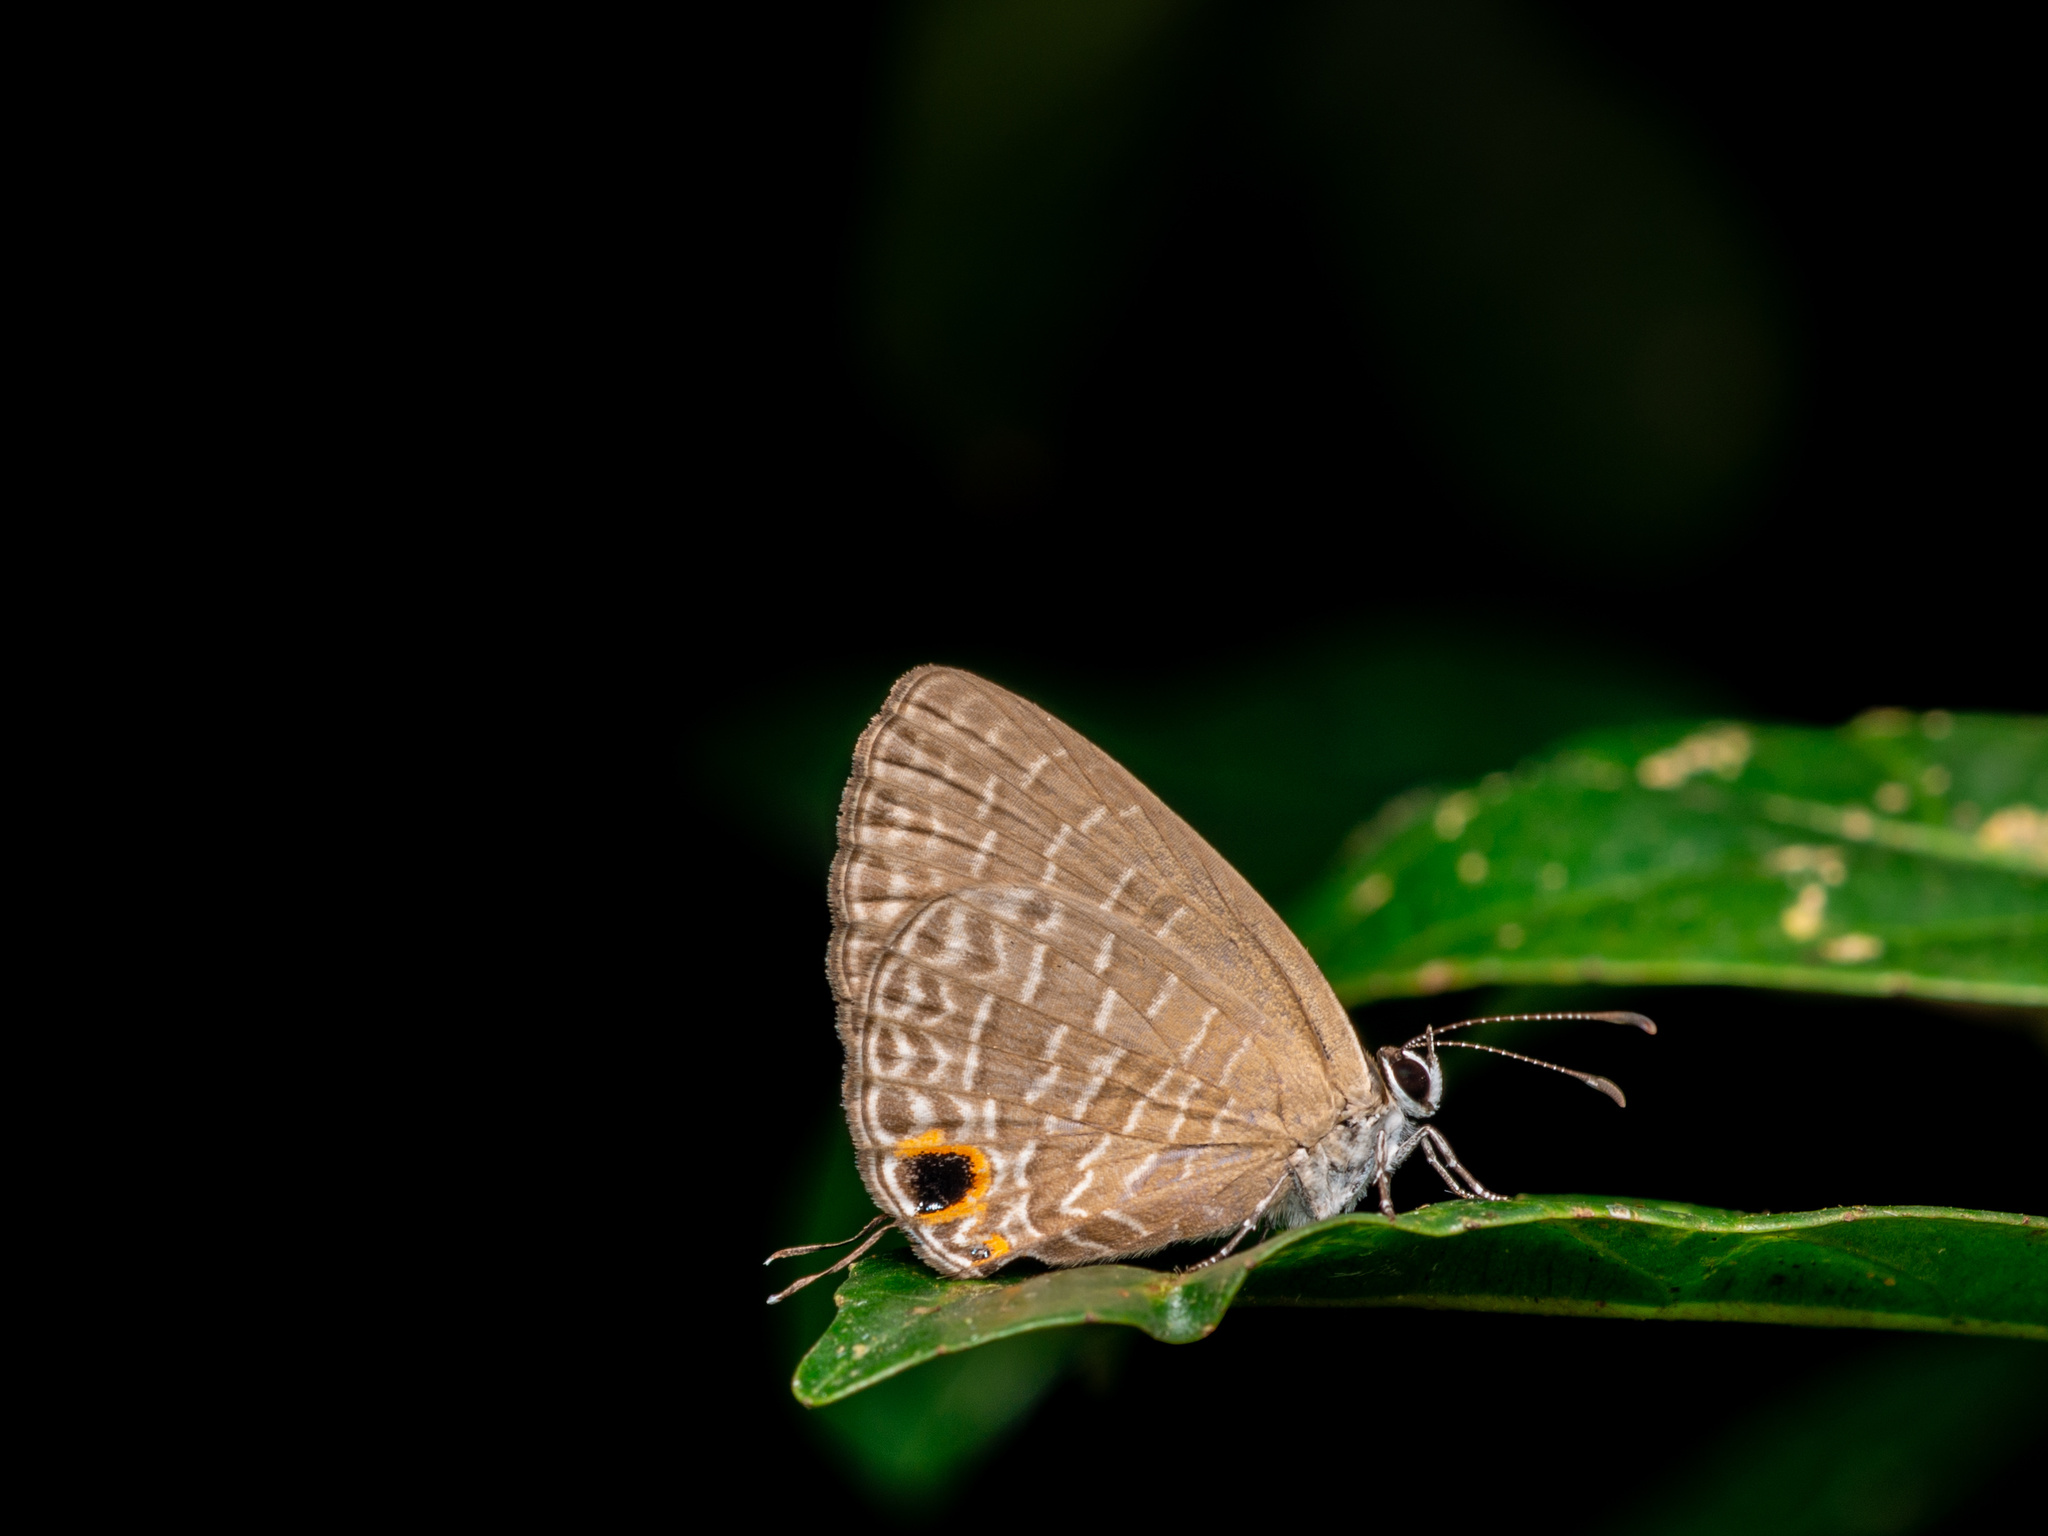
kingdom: Animalia
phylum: Arthropoda
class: Insecta
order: Lepidoptera
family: Lycaenidae
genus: Jamides
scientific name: Jamides bochus
